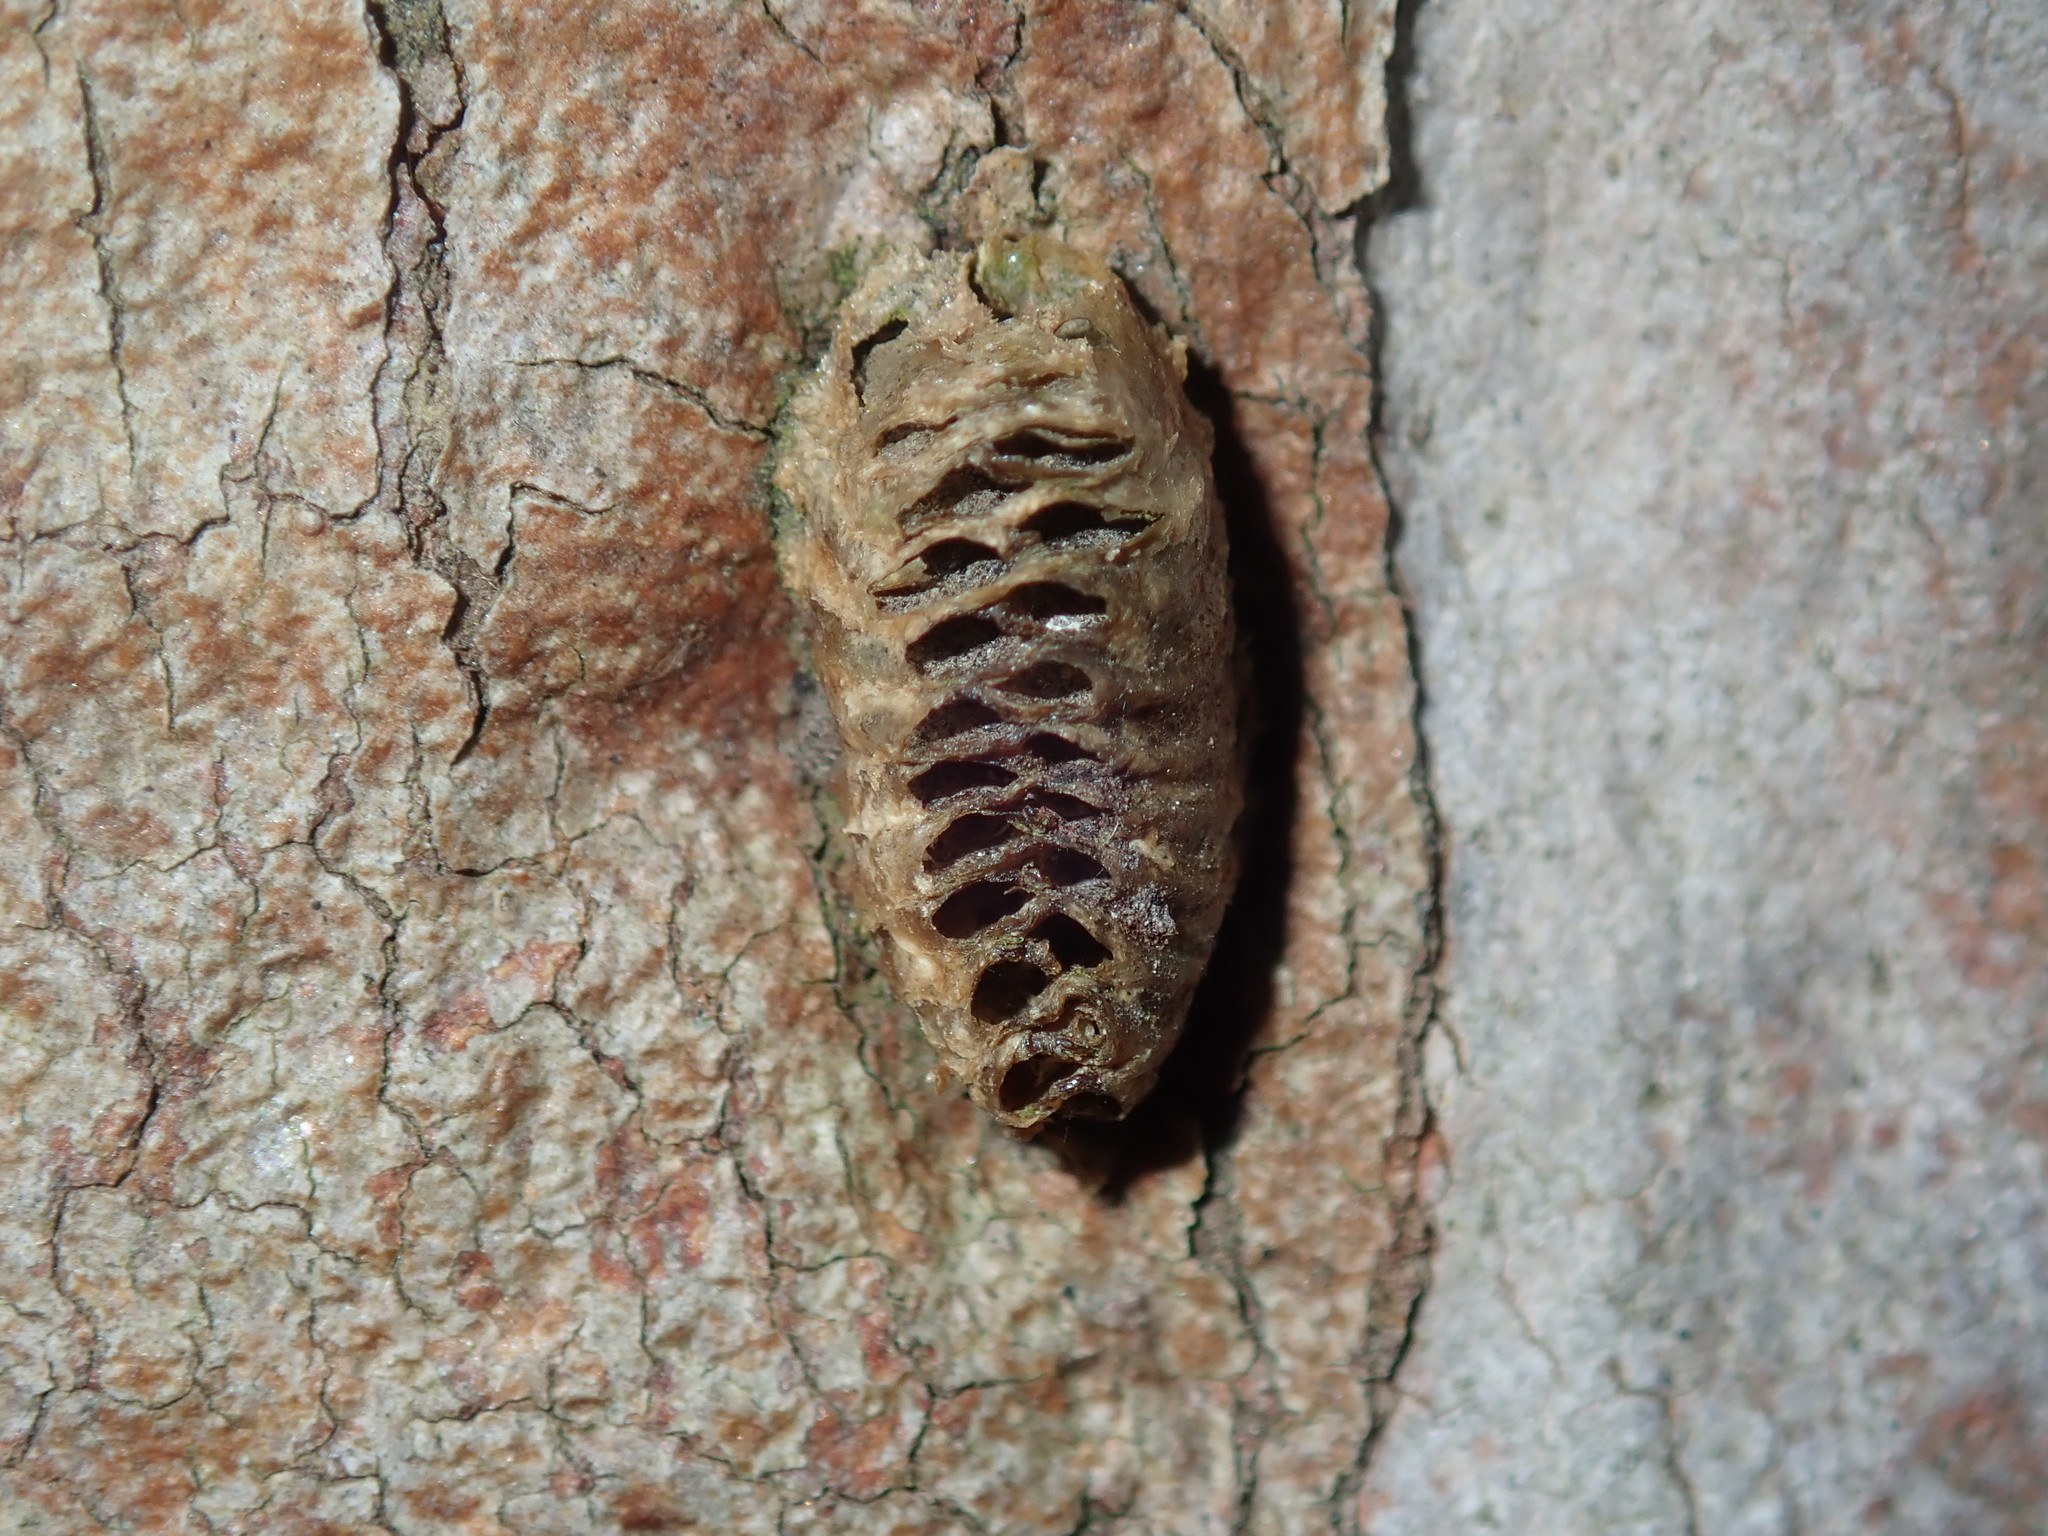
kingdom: Animalia
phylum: Arthropoda
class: Insecta
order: Mantodea
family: Mantidae
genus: Orthodera
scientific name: Orthodera ministralis
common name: Mantis
